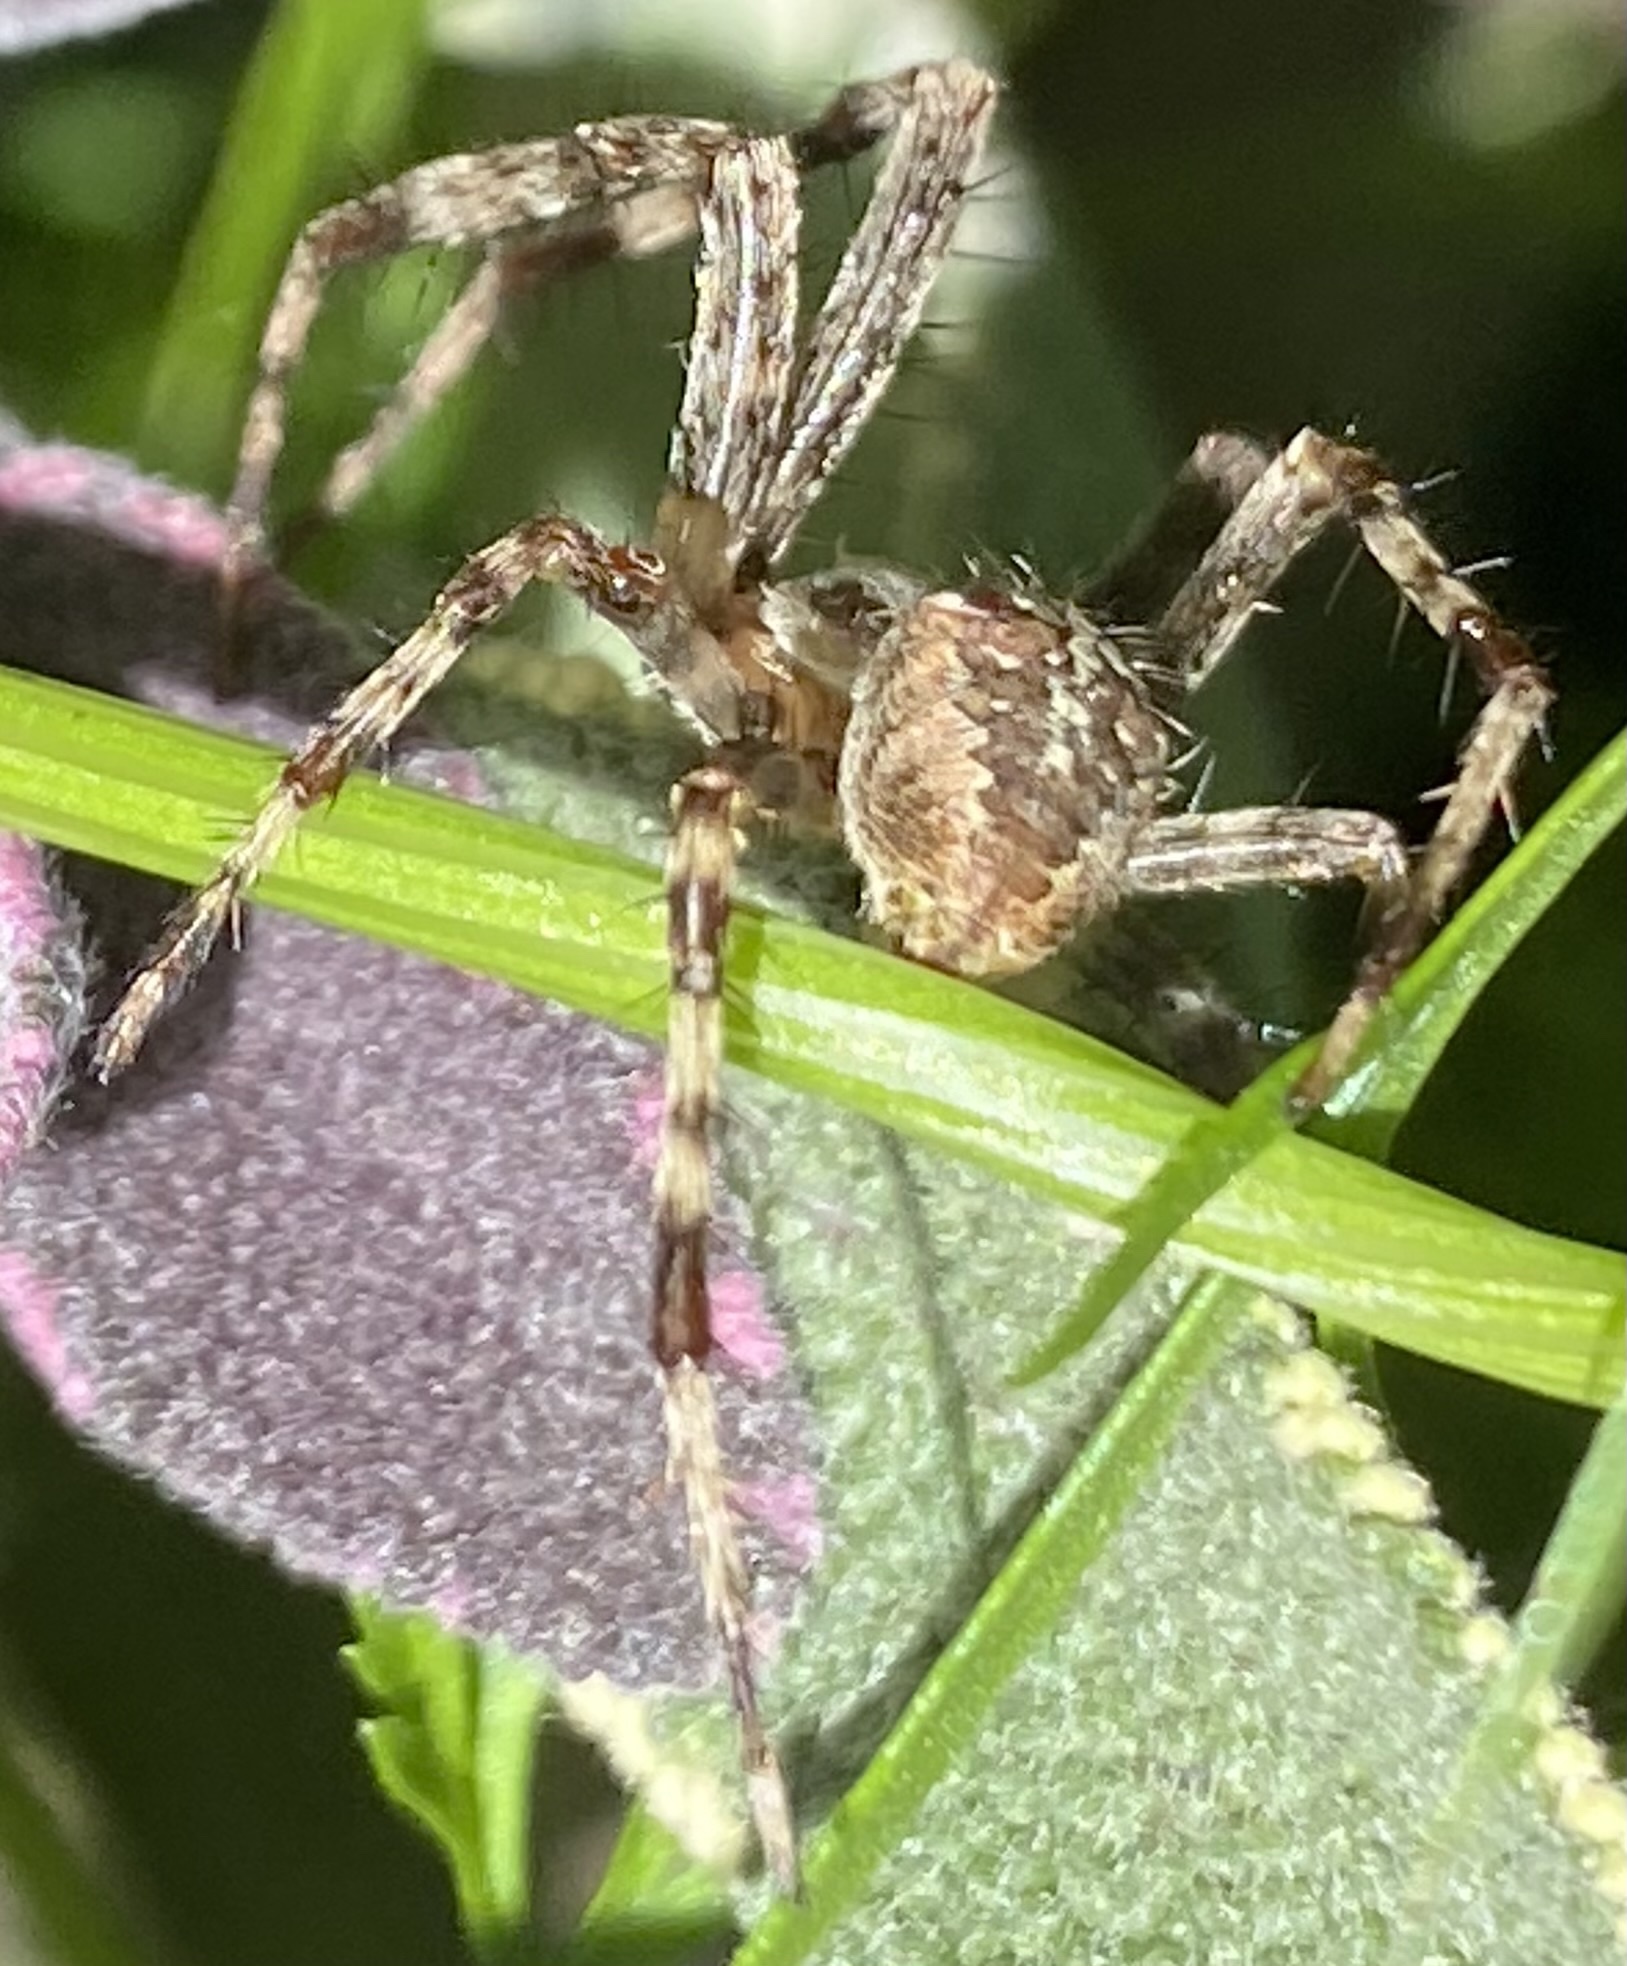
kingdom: Animalia
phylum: Arthropoda
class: Arachnida
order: Araneae
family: Araneidae
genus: Araneus
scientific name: Araneus diadematus
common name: Cross orbweaver
